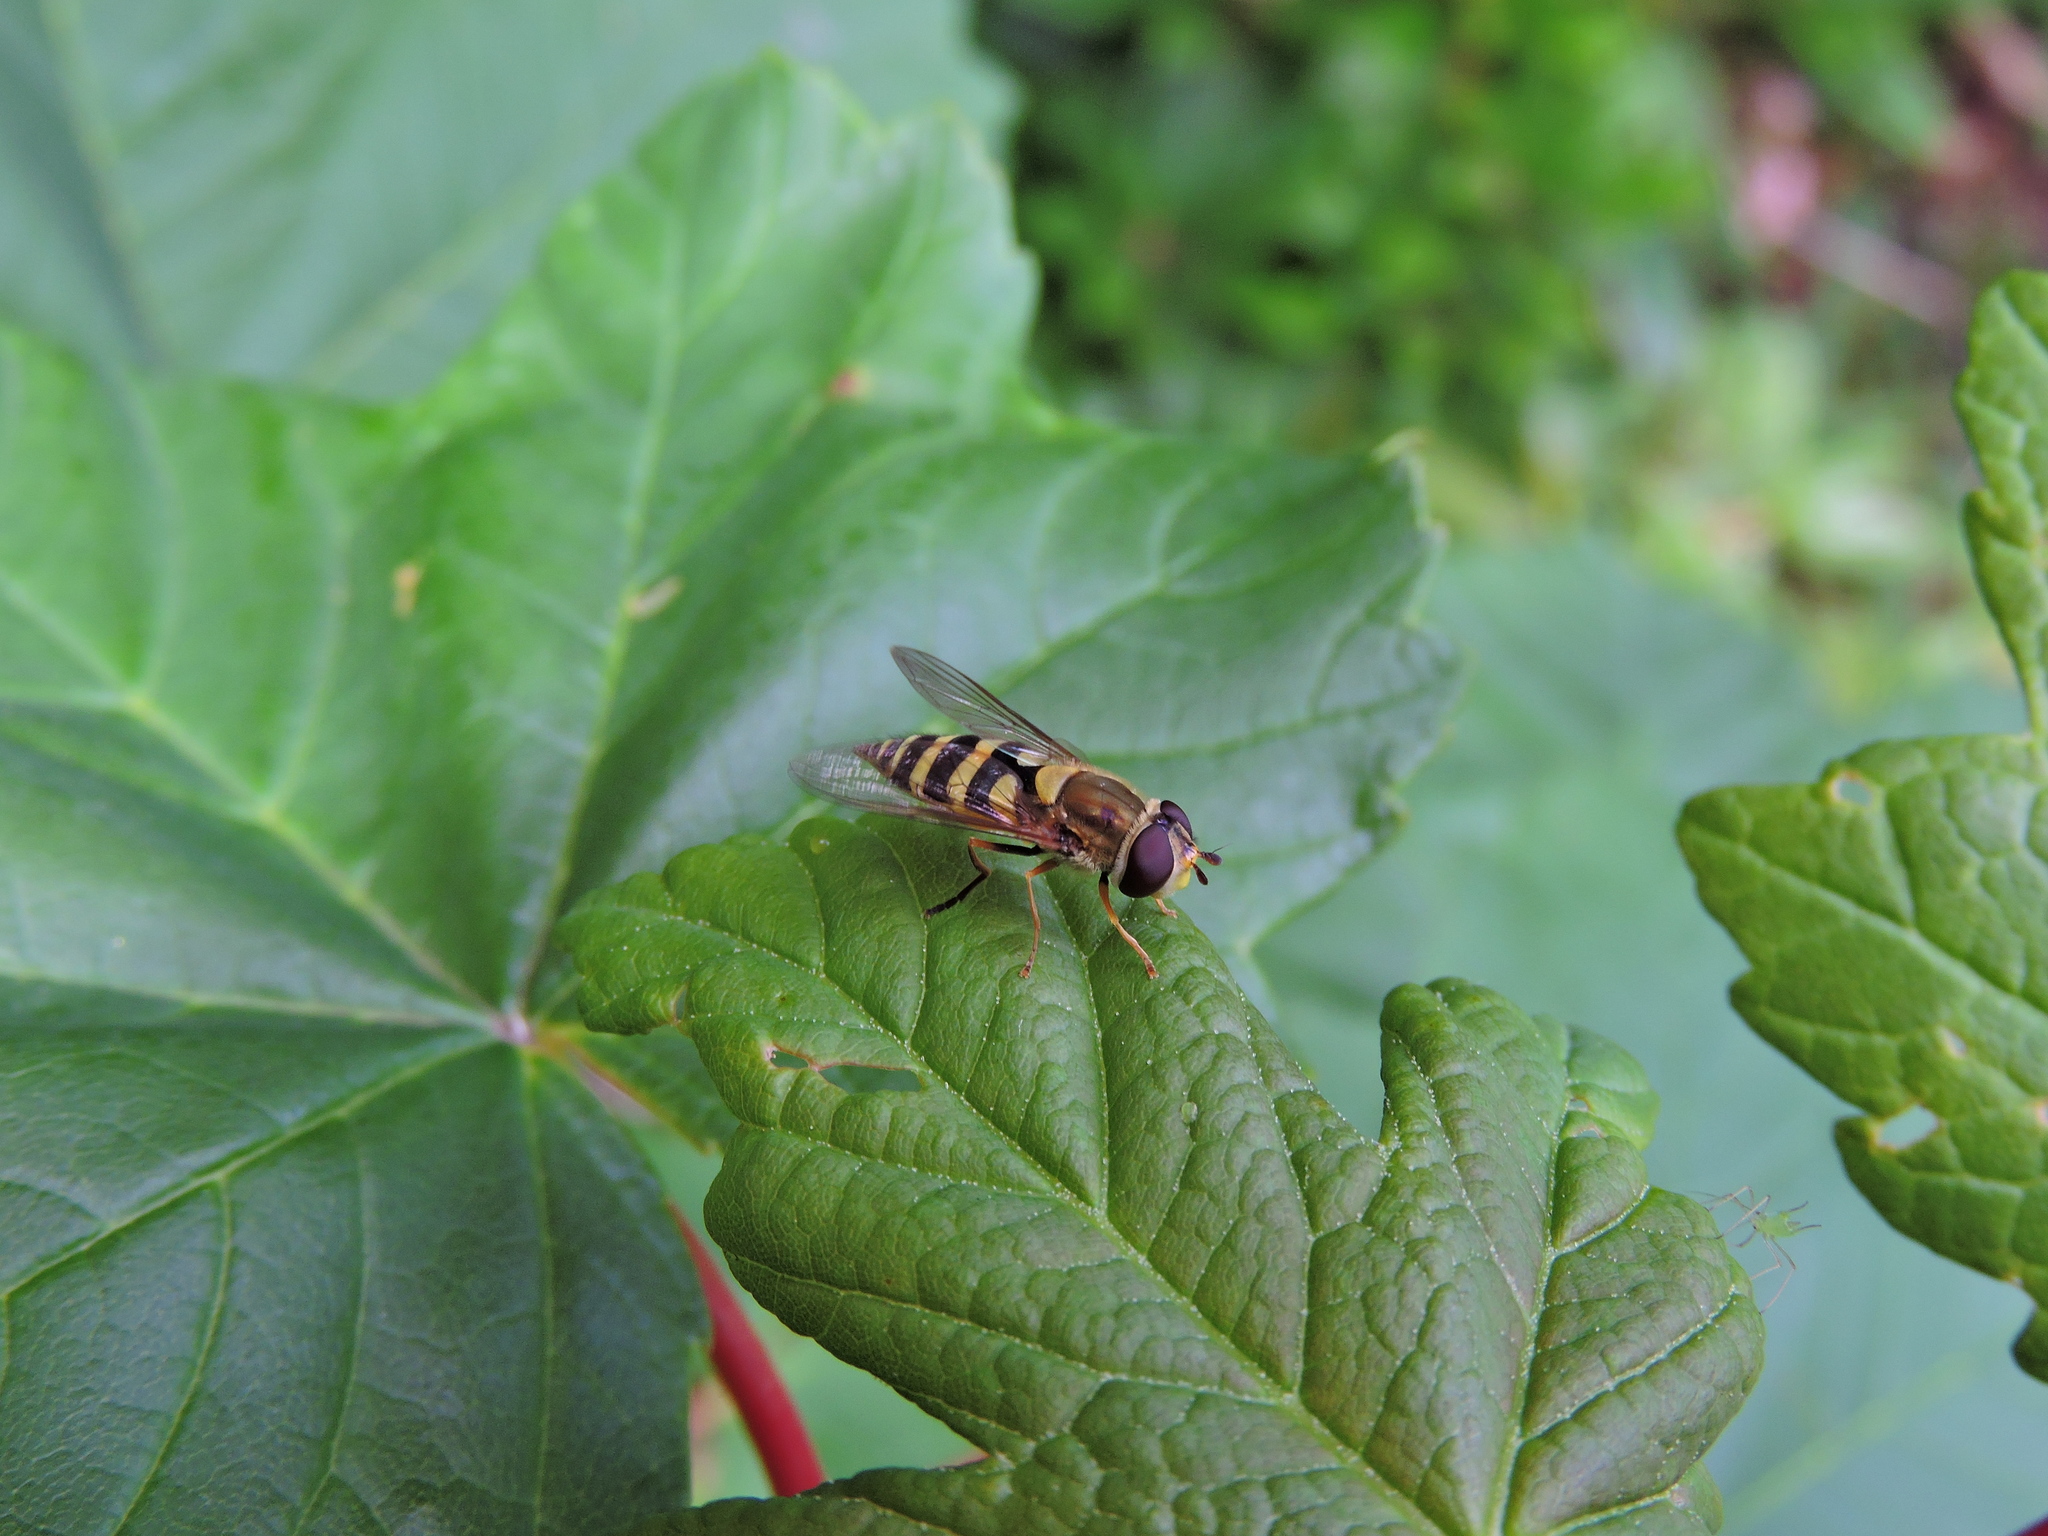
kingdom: Animalia
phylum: Arthropoda
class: Insecta
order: Diptera
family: Syrphidae
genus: Syrphus
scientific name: Syrphus
